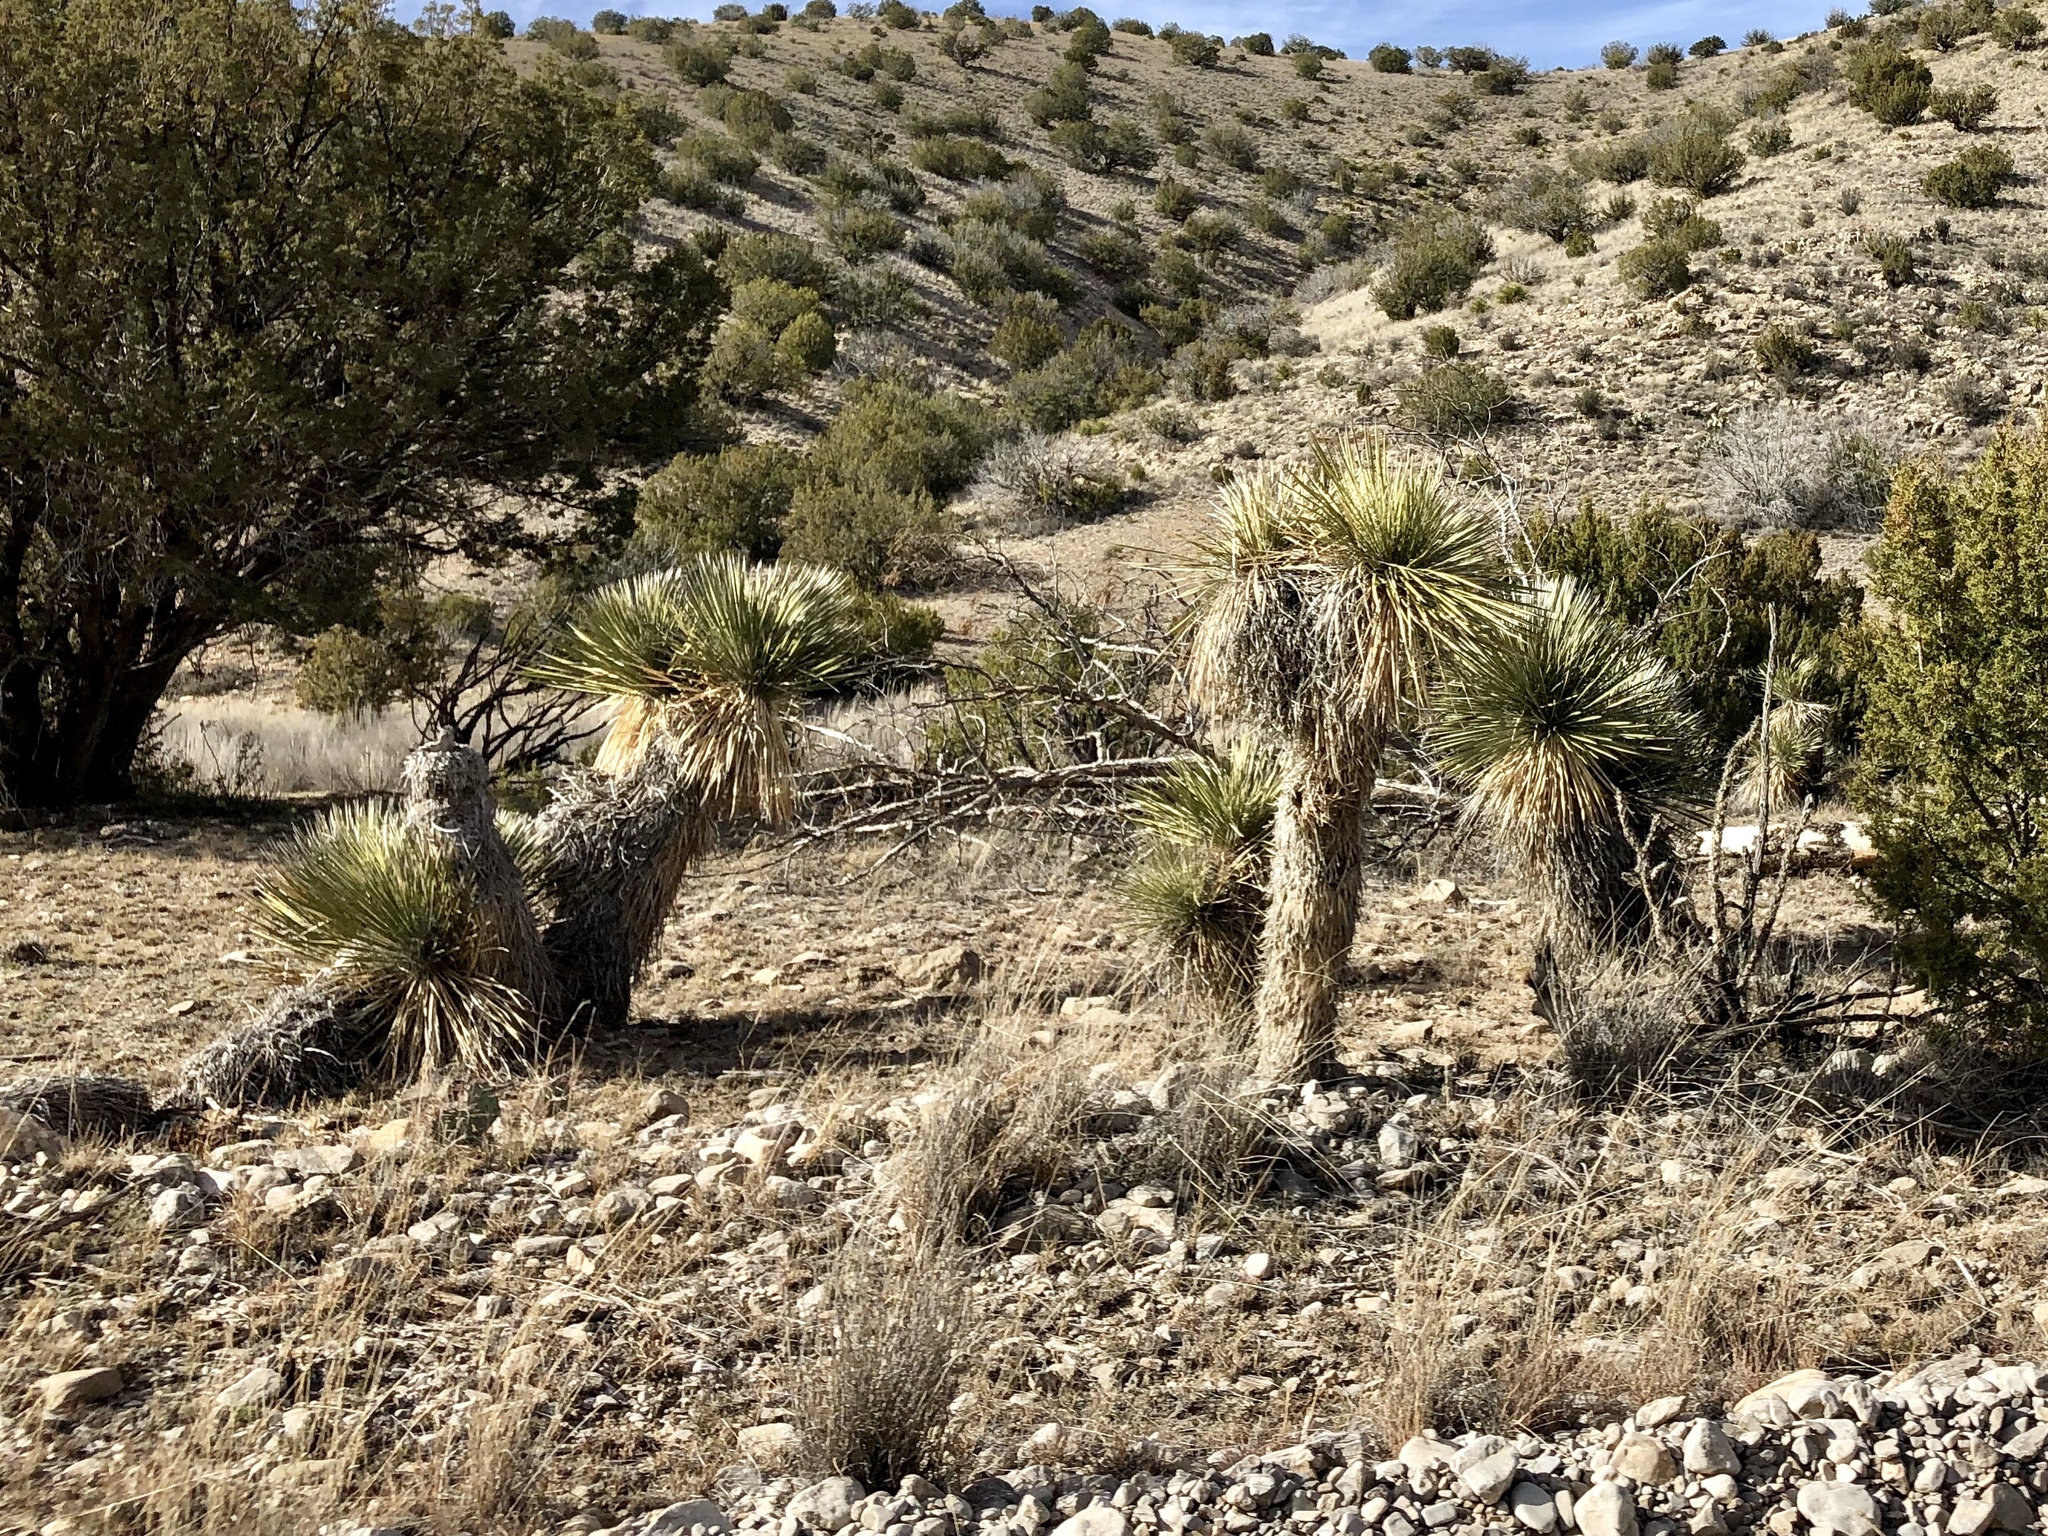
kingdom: Plantae
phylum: Tracheophyta
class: Liliopsida
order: Asparagales
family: Asparagaceae
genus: Yucca
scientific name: Yucca elata
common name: Palmella
